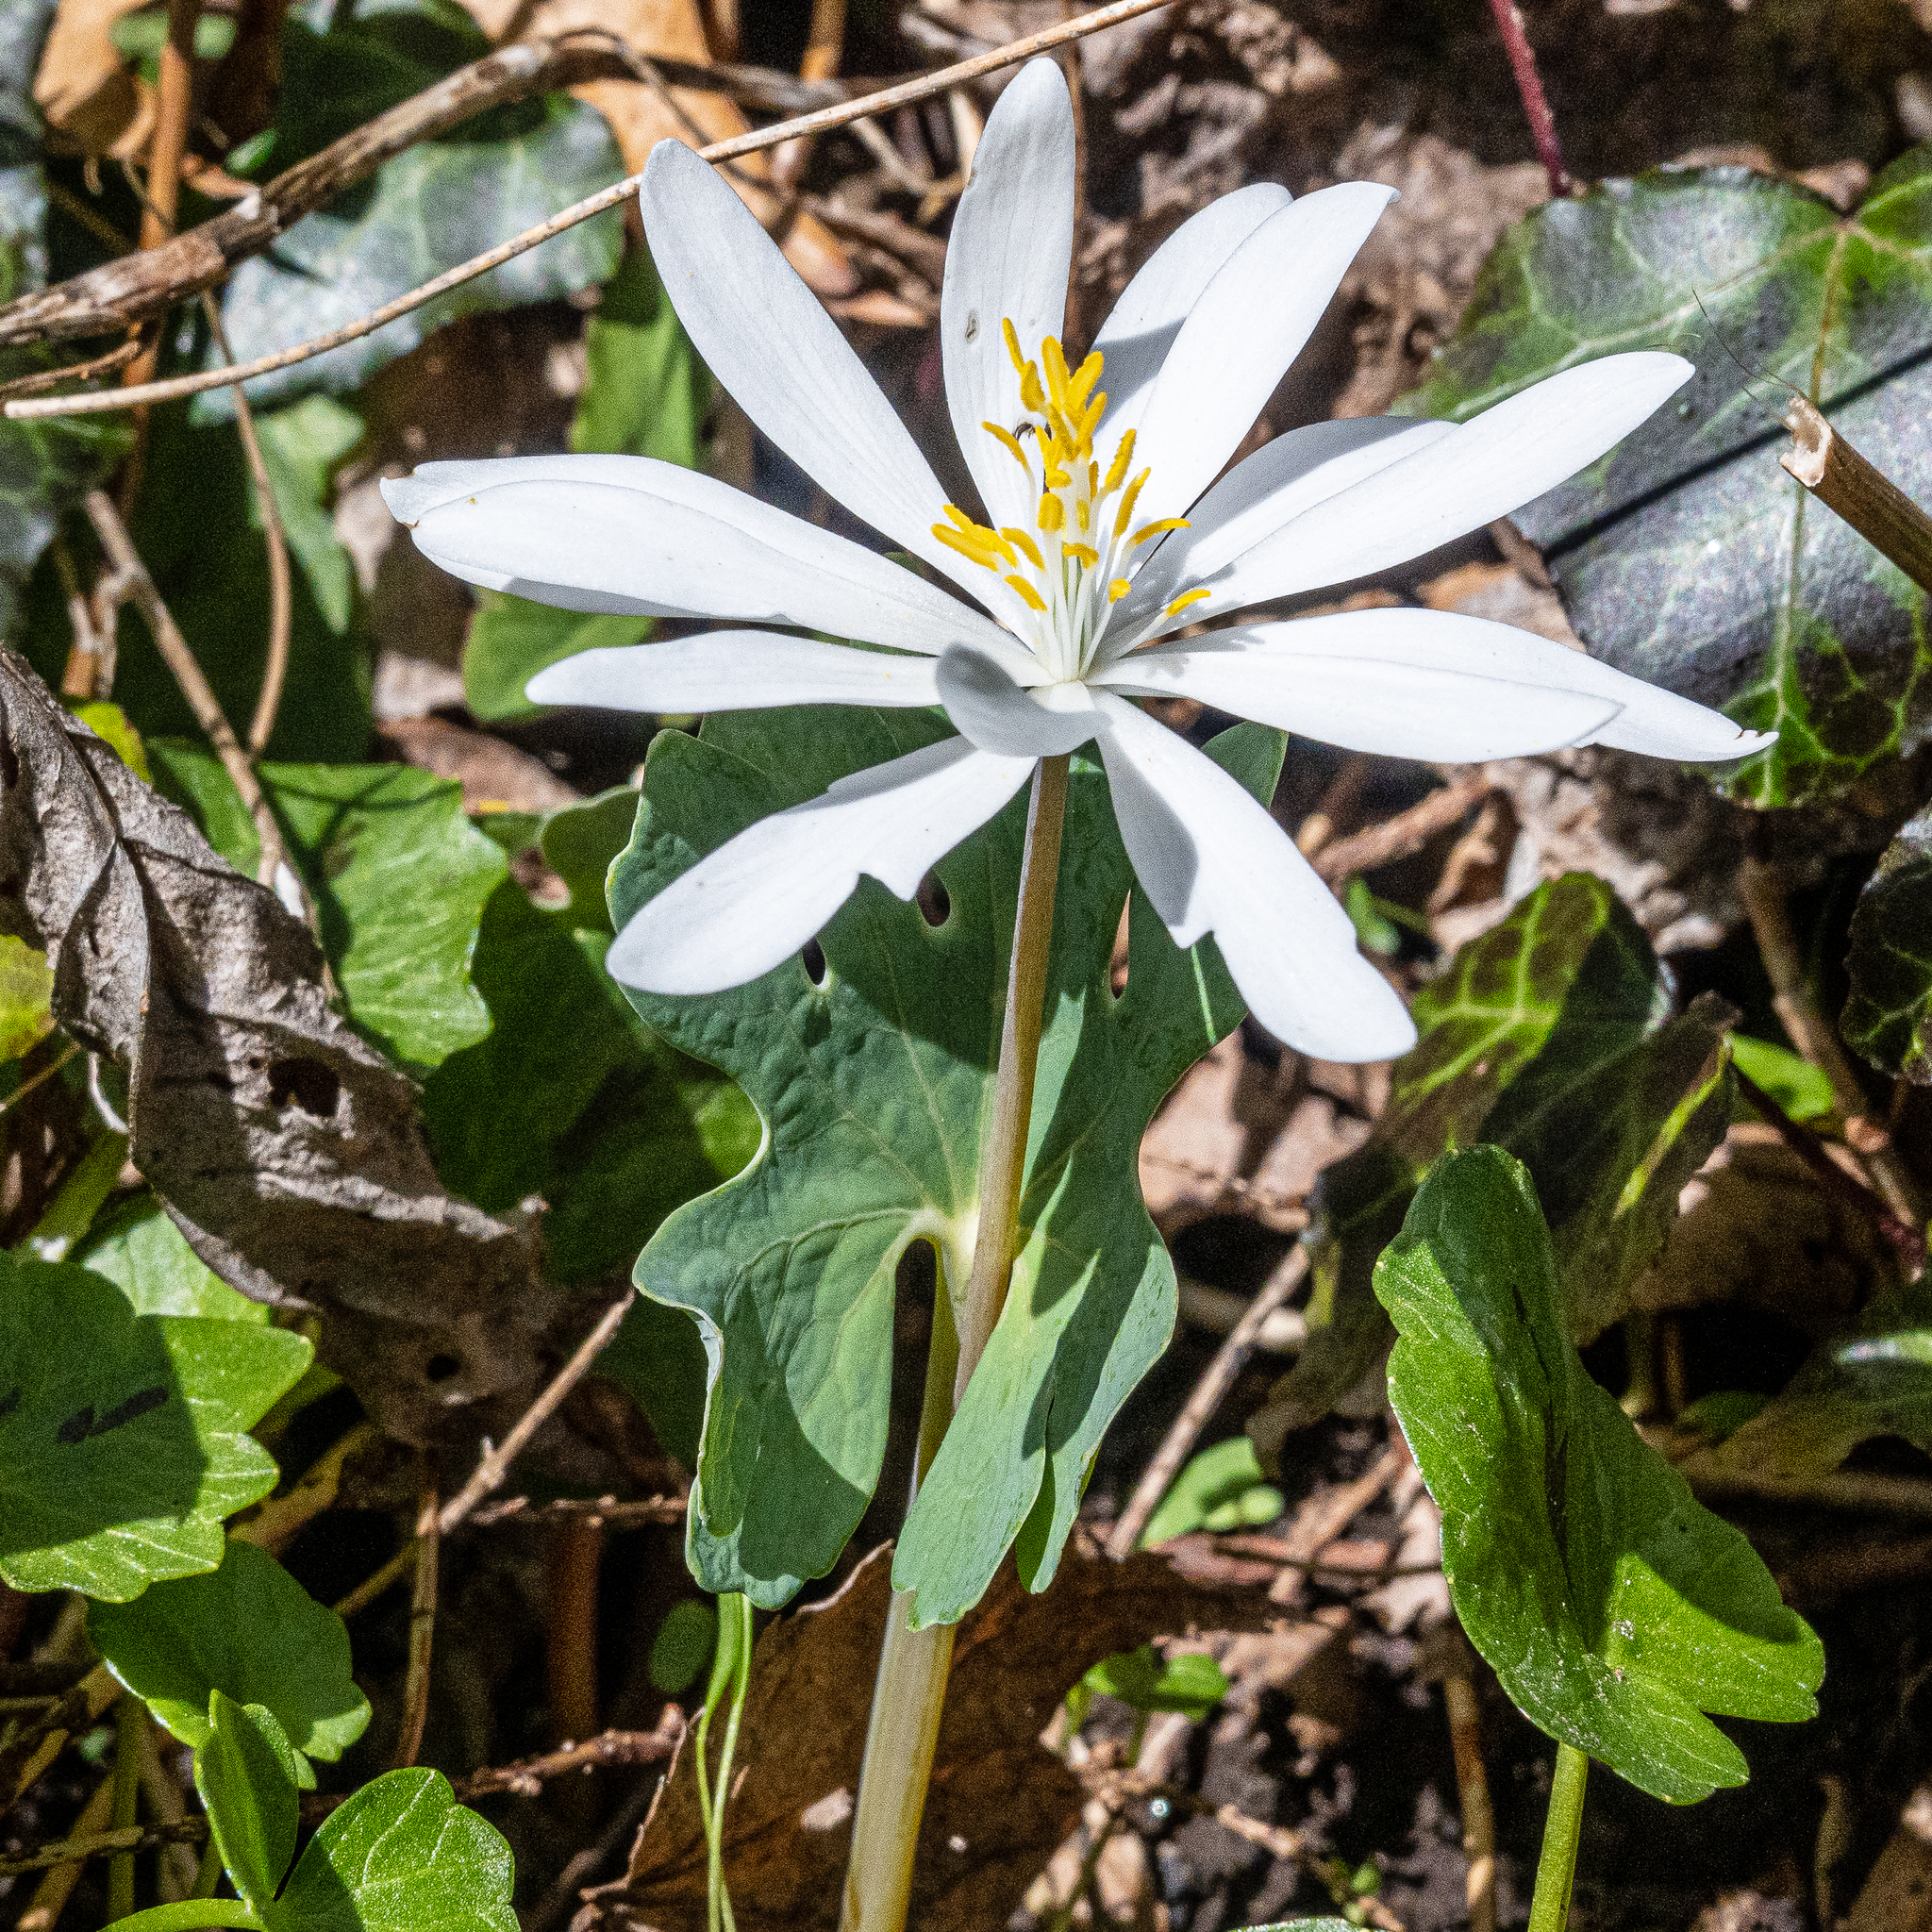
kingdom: Plantae
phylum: Tracheophyta
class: Magnoliopsida
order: Ranunculales
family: Papaveraceae
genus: Sanguinaria
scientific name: Sanguinaria canadensis
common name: Bloodroot
